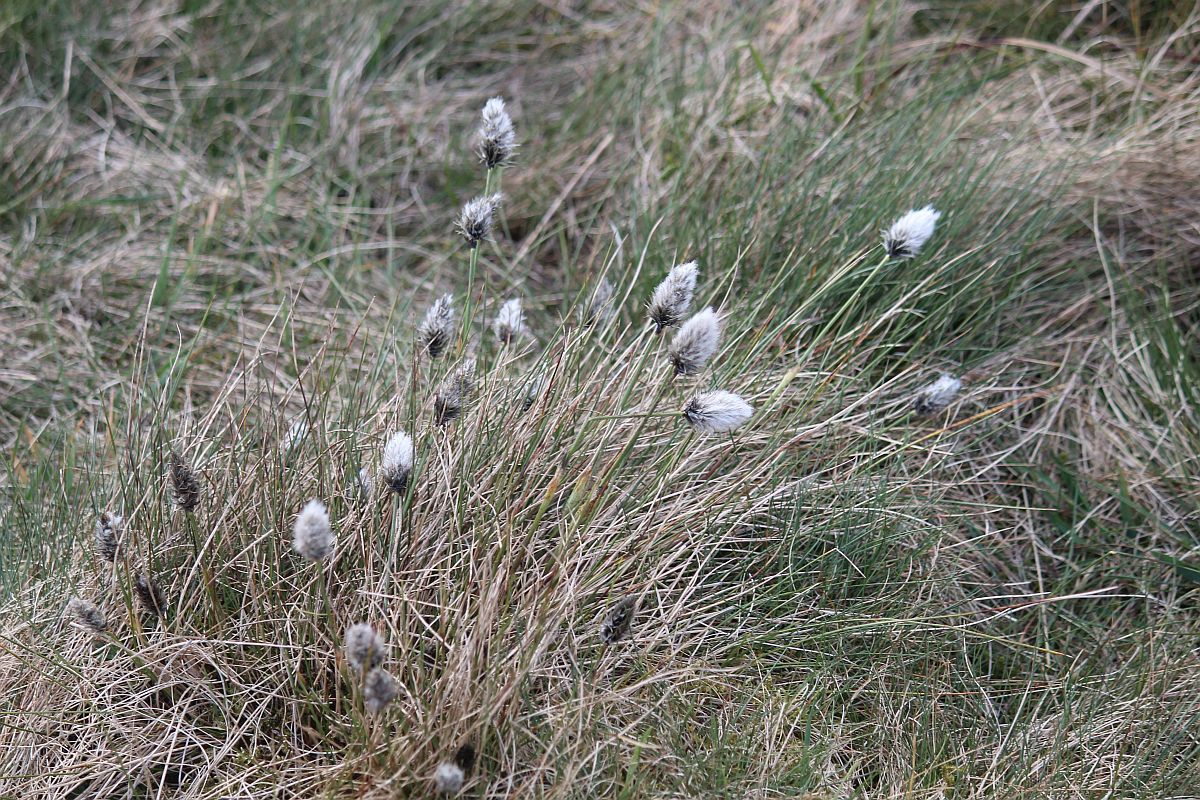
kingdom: Plantae
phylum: Tracheophyta
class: Liliopsida
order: Poales
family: Cyperaceae
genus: Eriophorum
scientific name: Eriophorum vaginatum
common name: Hare's-tail cottongrass
